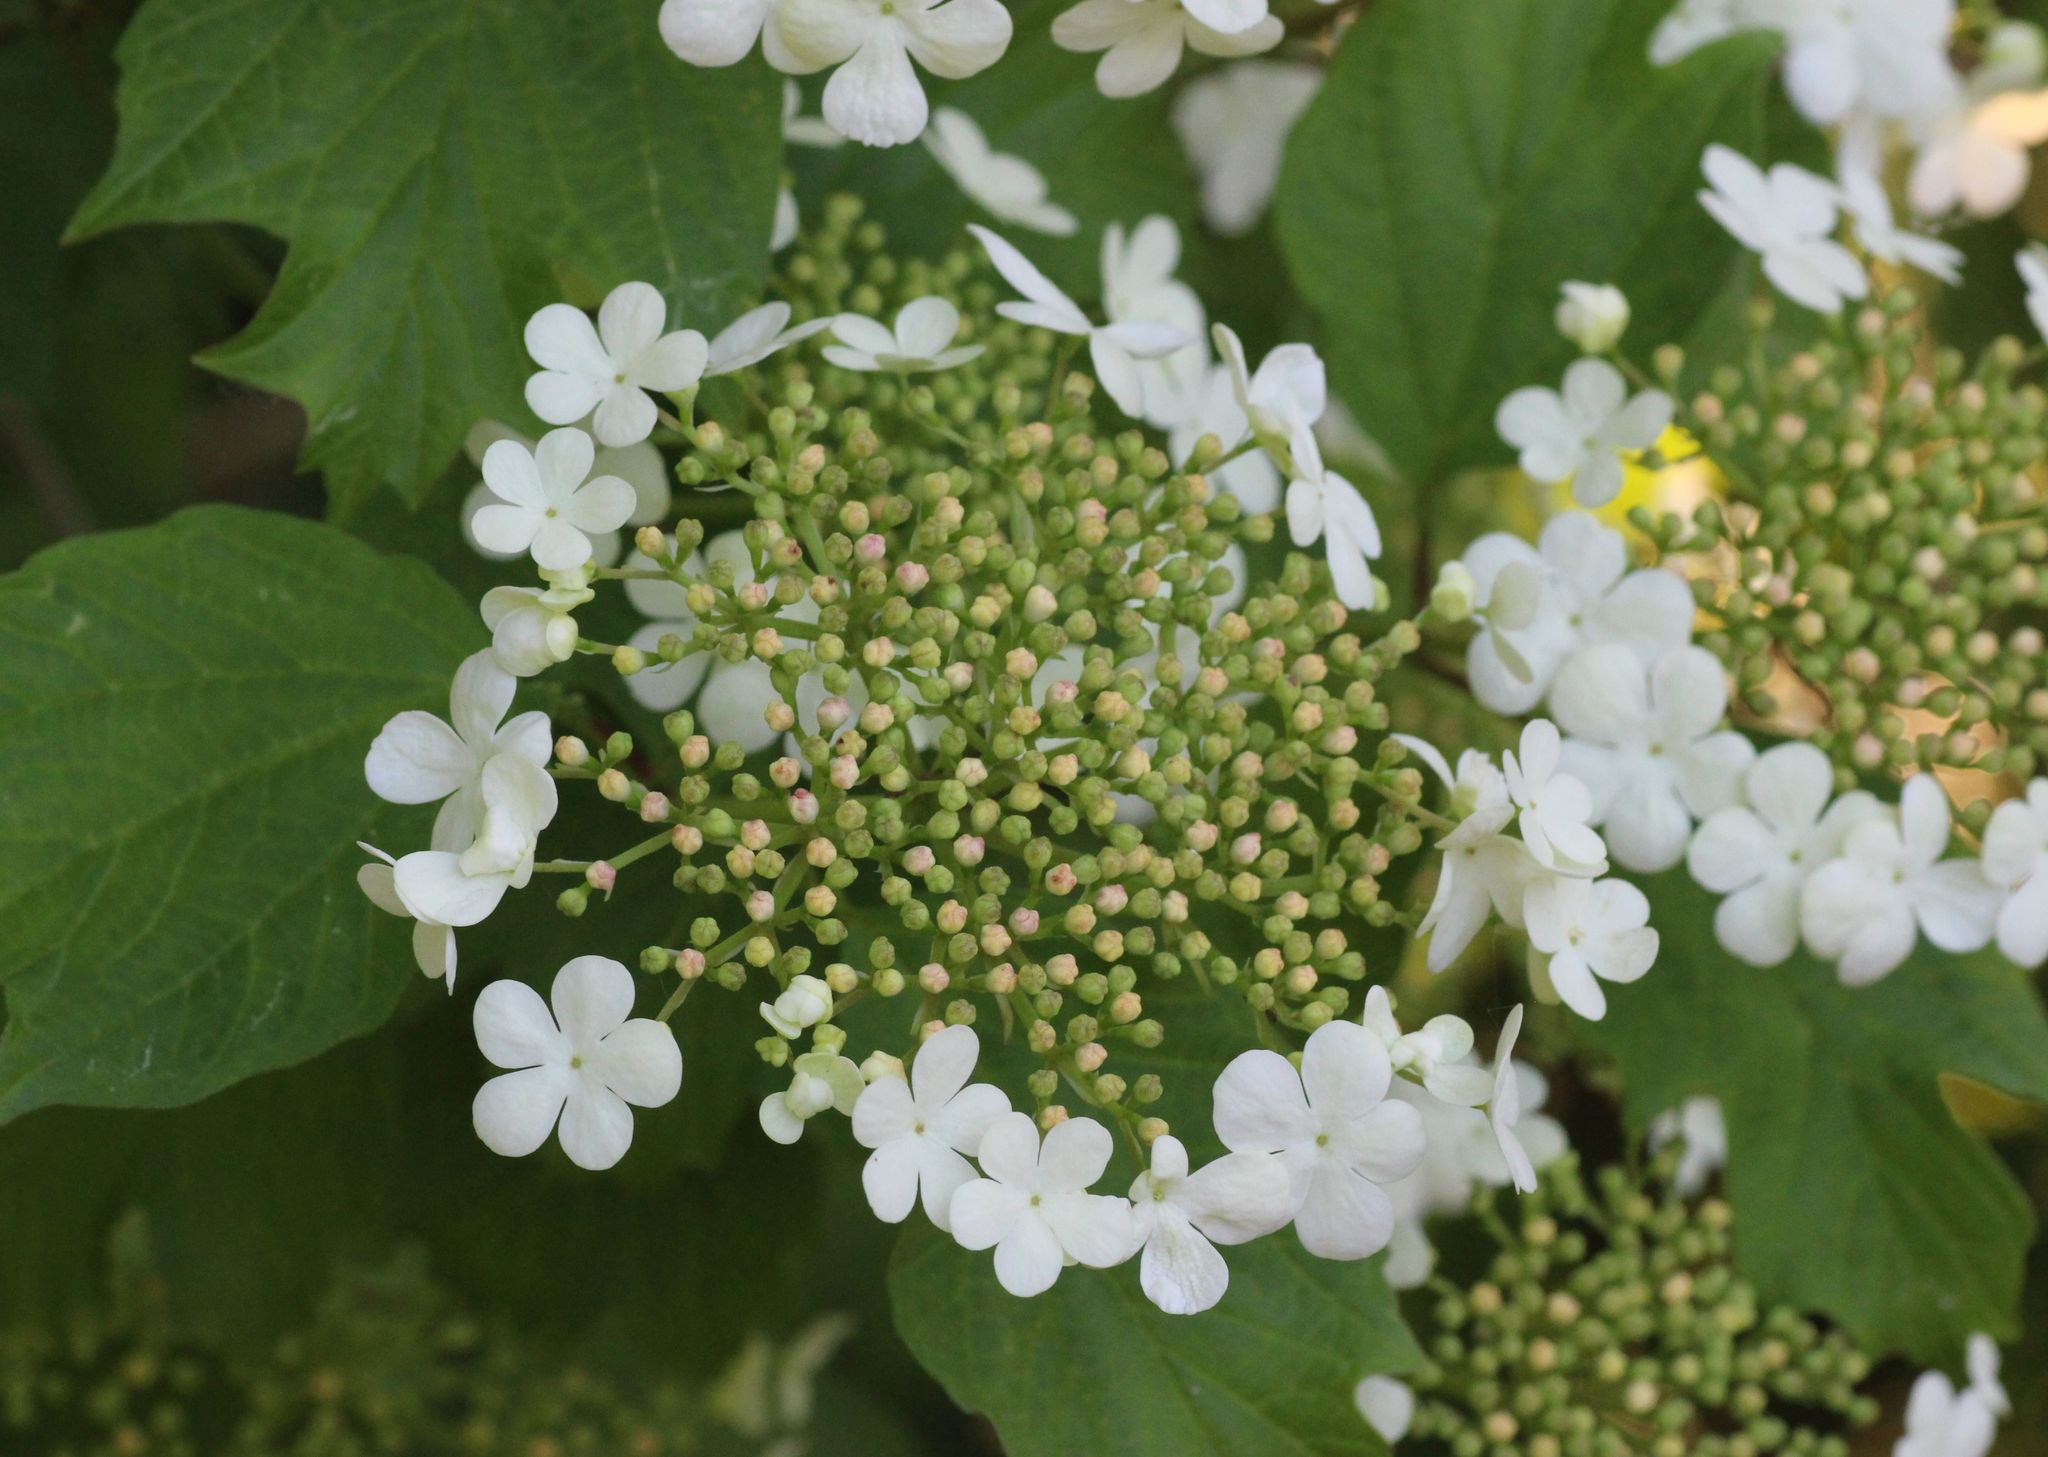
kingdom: Plantae
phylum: Tracheophyta
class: Magnoliopsida
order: Dipsacales
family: Viburnaceae
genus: Viburnum
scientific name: Viburnum opulus
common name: Guelder-rose
